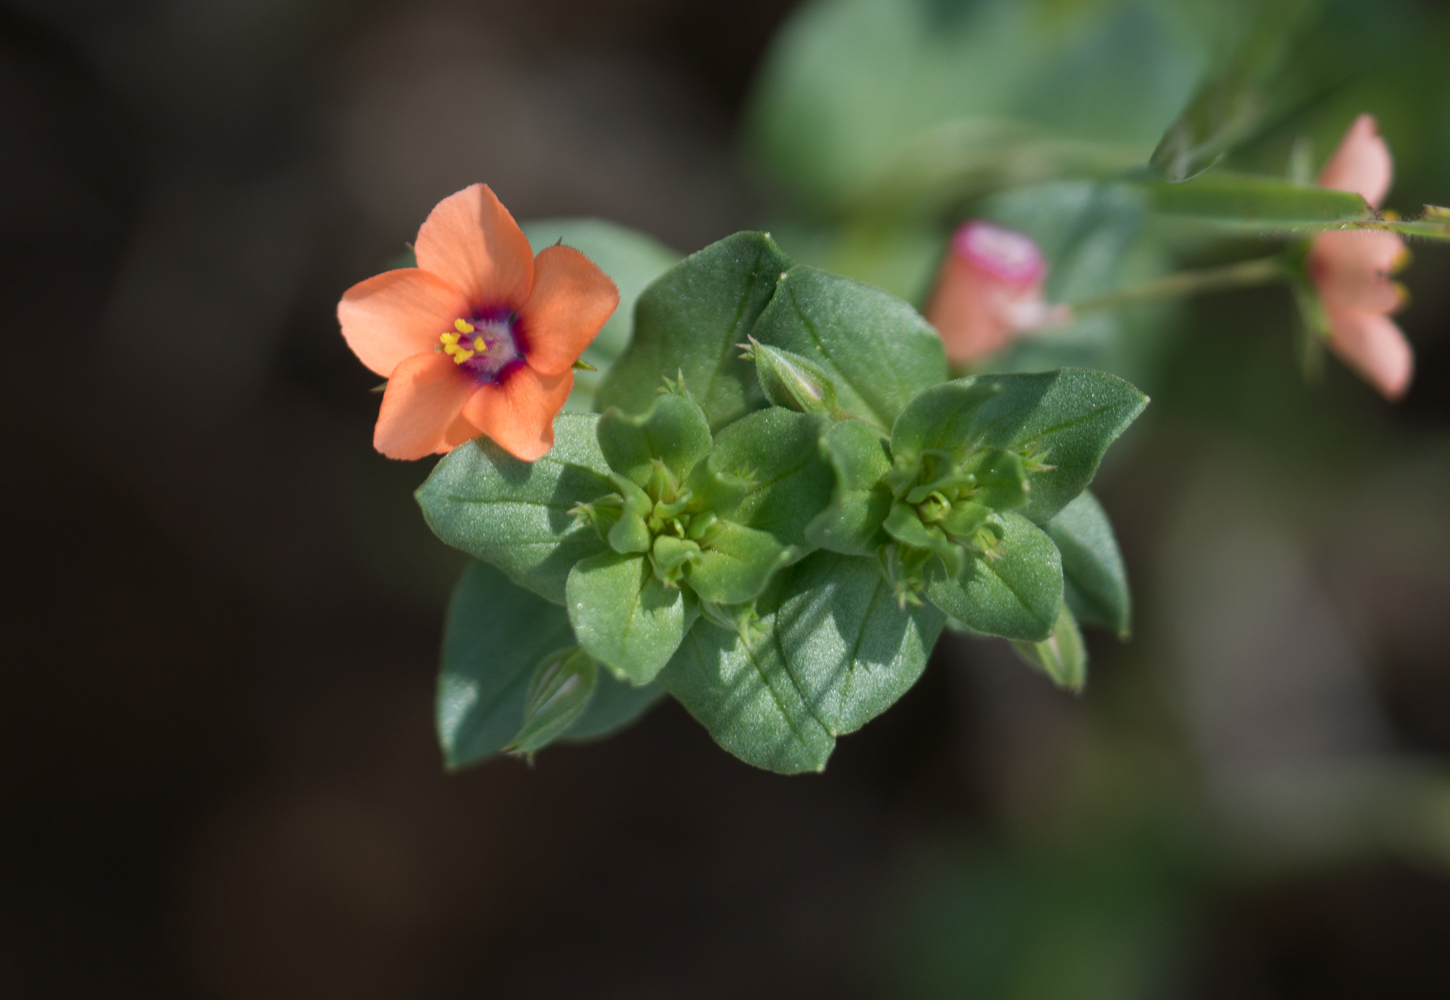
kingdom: Plantae
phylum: Tracheophyta
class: Magnoliopsida
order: Ericales
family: Primulaceae
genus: Lysimachia
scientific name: Lysimachia arvensis
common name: Scarlet pimpernel
